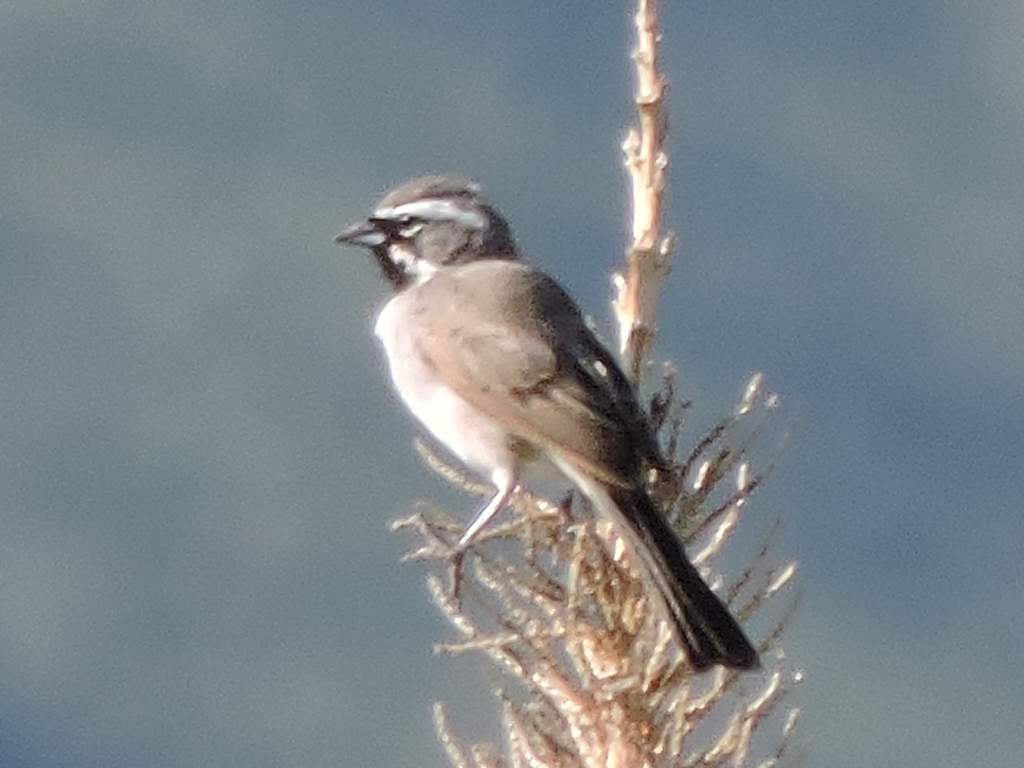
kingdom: Animalia
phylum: Chordata
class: Aves
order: Passeriformes
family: Passerellidae
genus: Amphispiza
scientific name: Amphispiza bilineata
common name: Black-throated sparrow
